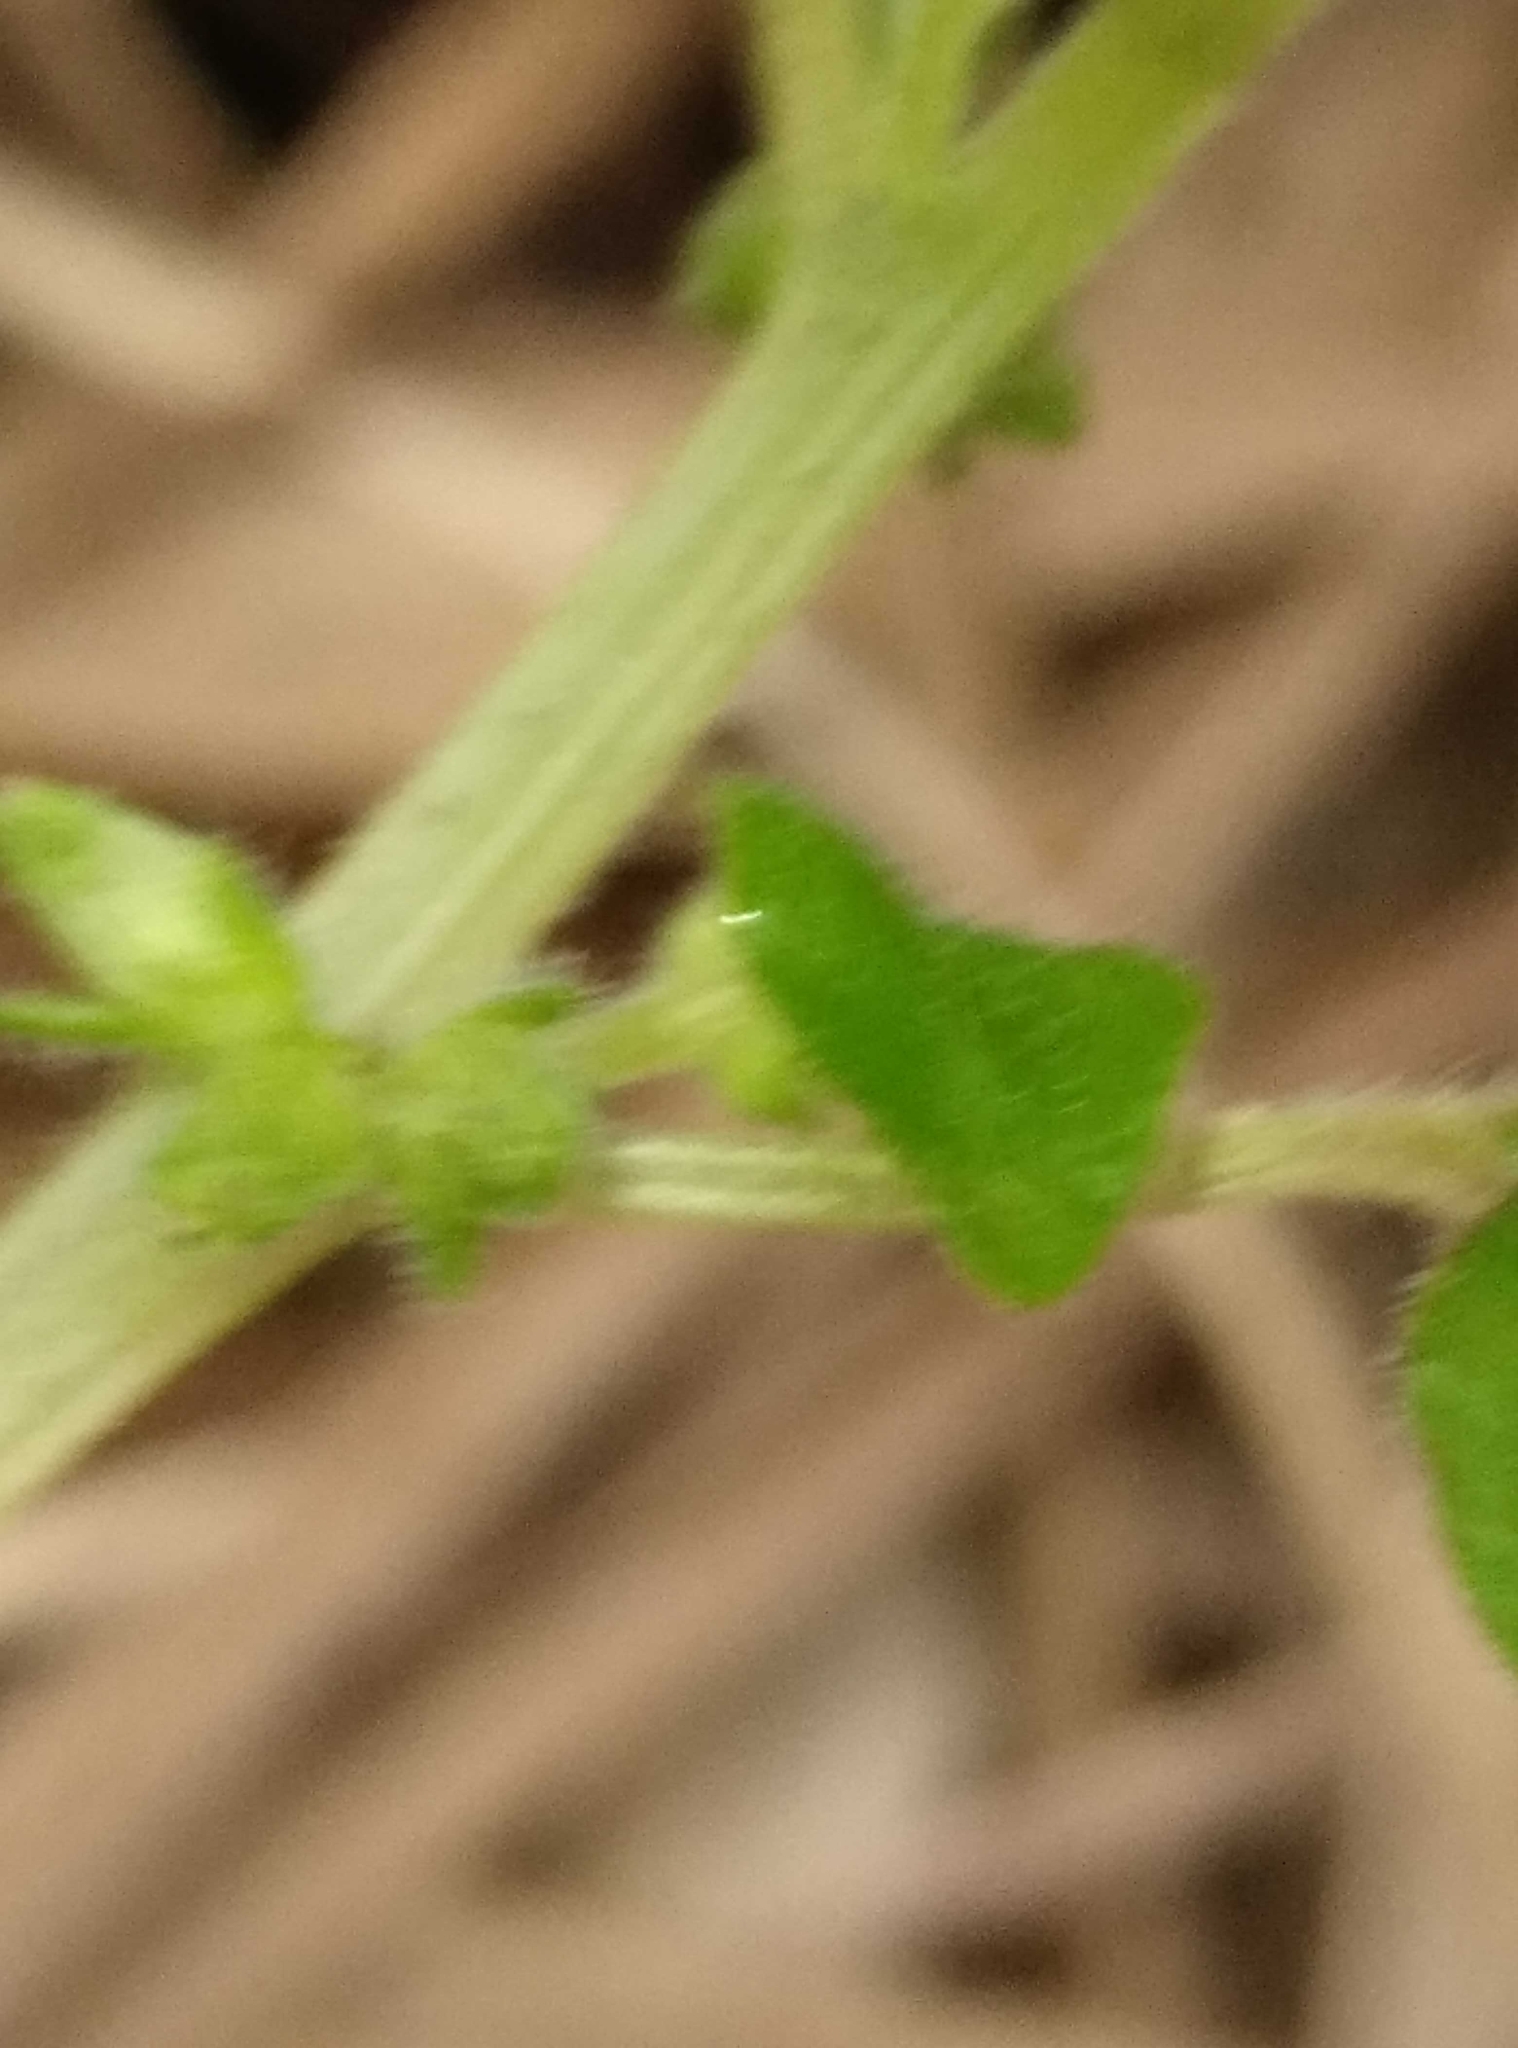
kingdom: Plantae
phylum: Tracheophyta
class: Magnoliopsida
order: Rosales
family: Urticaceae
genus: Parietaria
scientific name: Parietaria debilis
